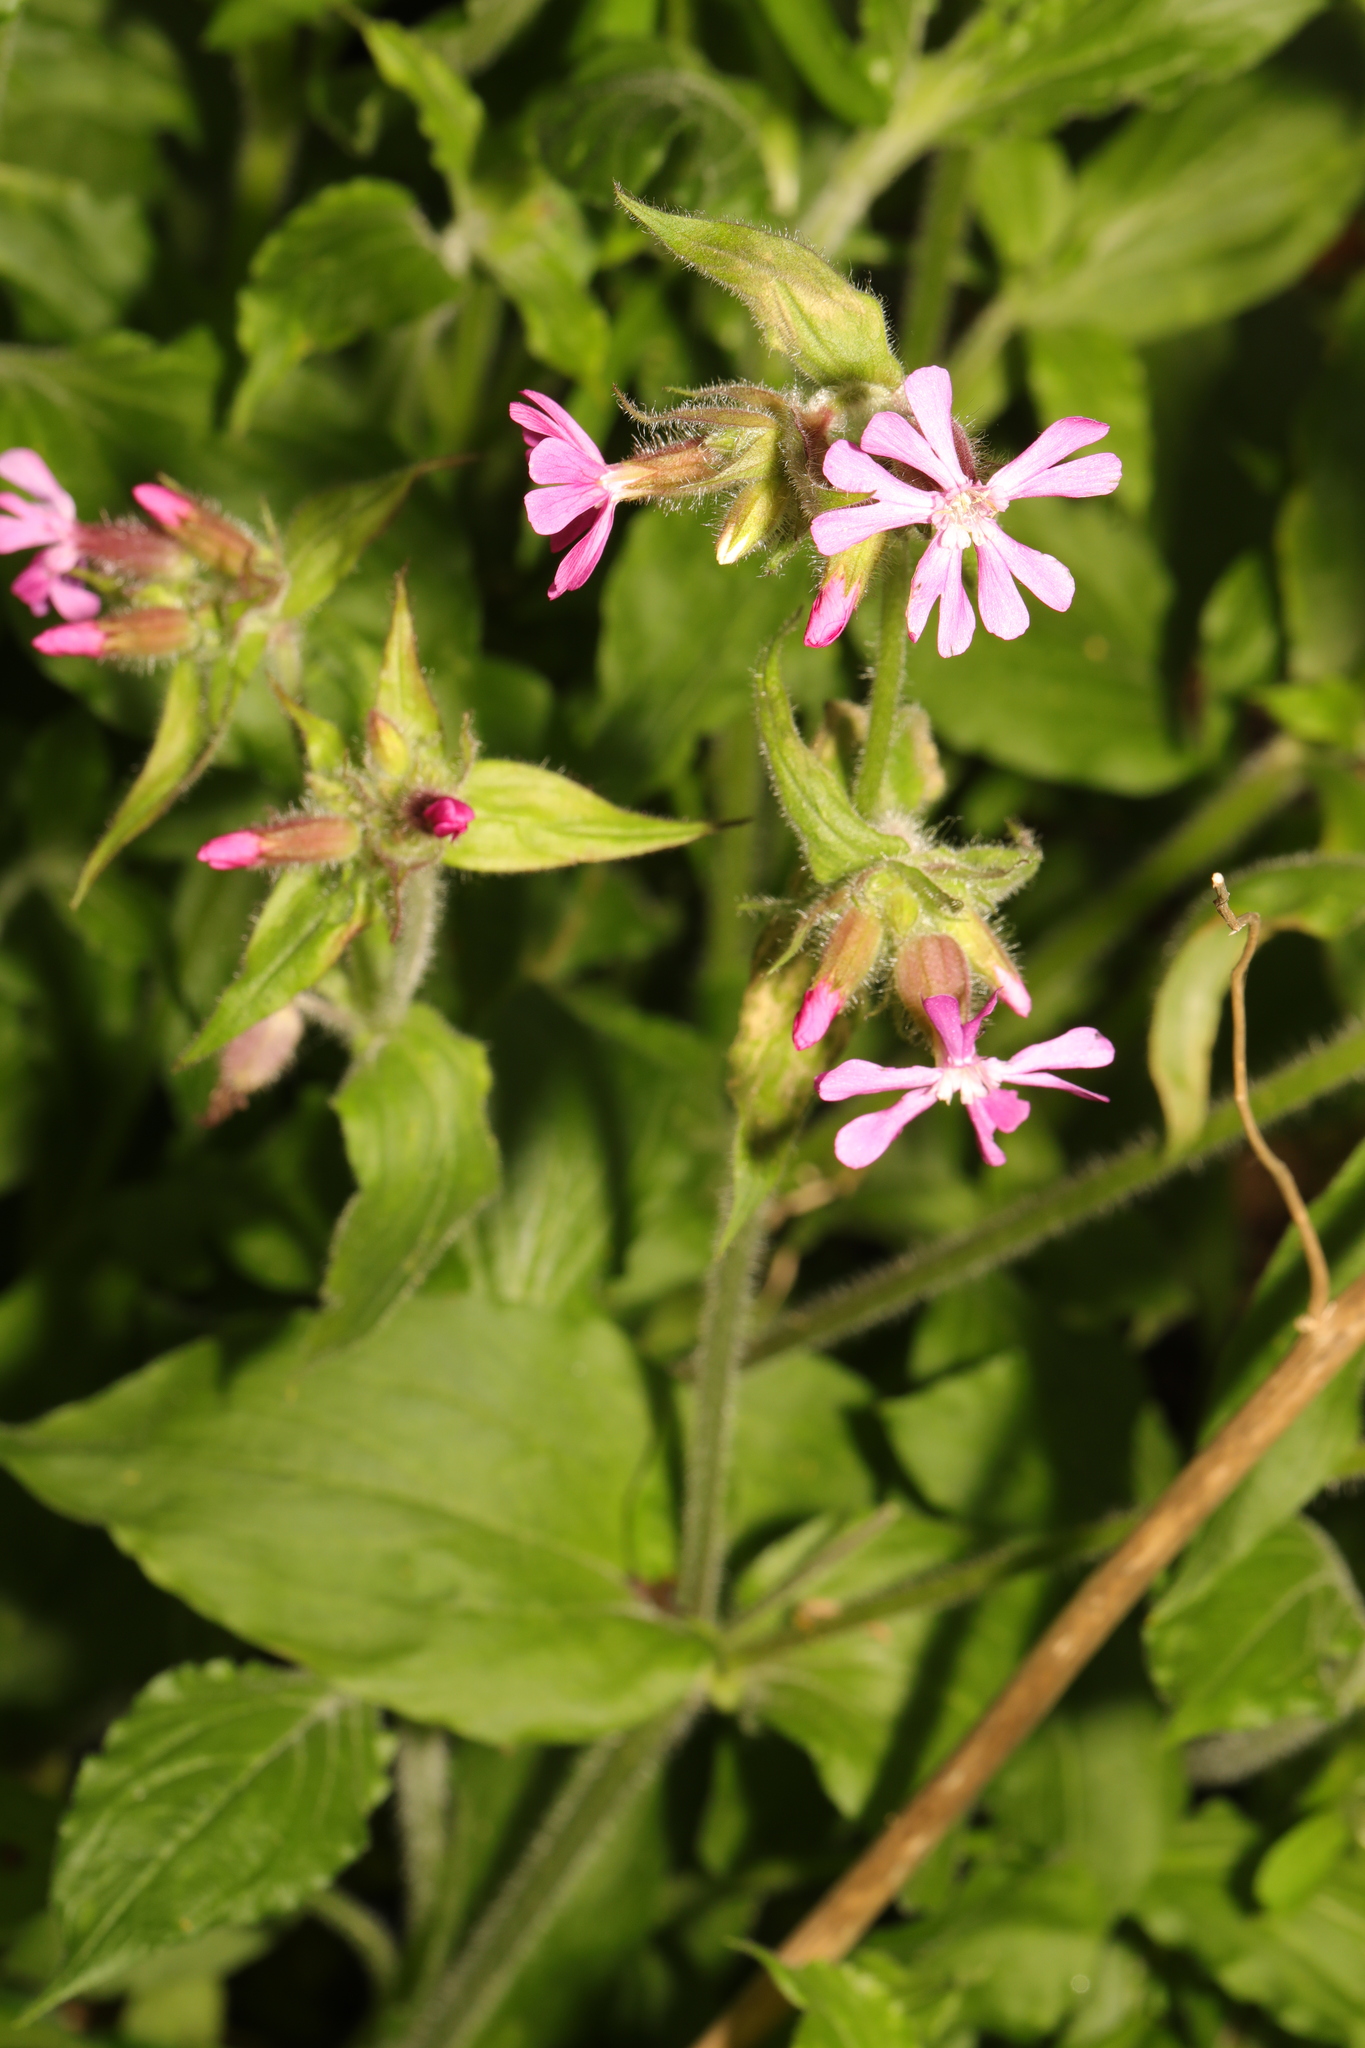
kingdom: Plantae
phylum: Tracheophyta
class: Magnoliopsida
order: Caryophyllales
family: Caryophyllaceae
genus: Silene
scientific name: Silene dioica
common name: Red campion
